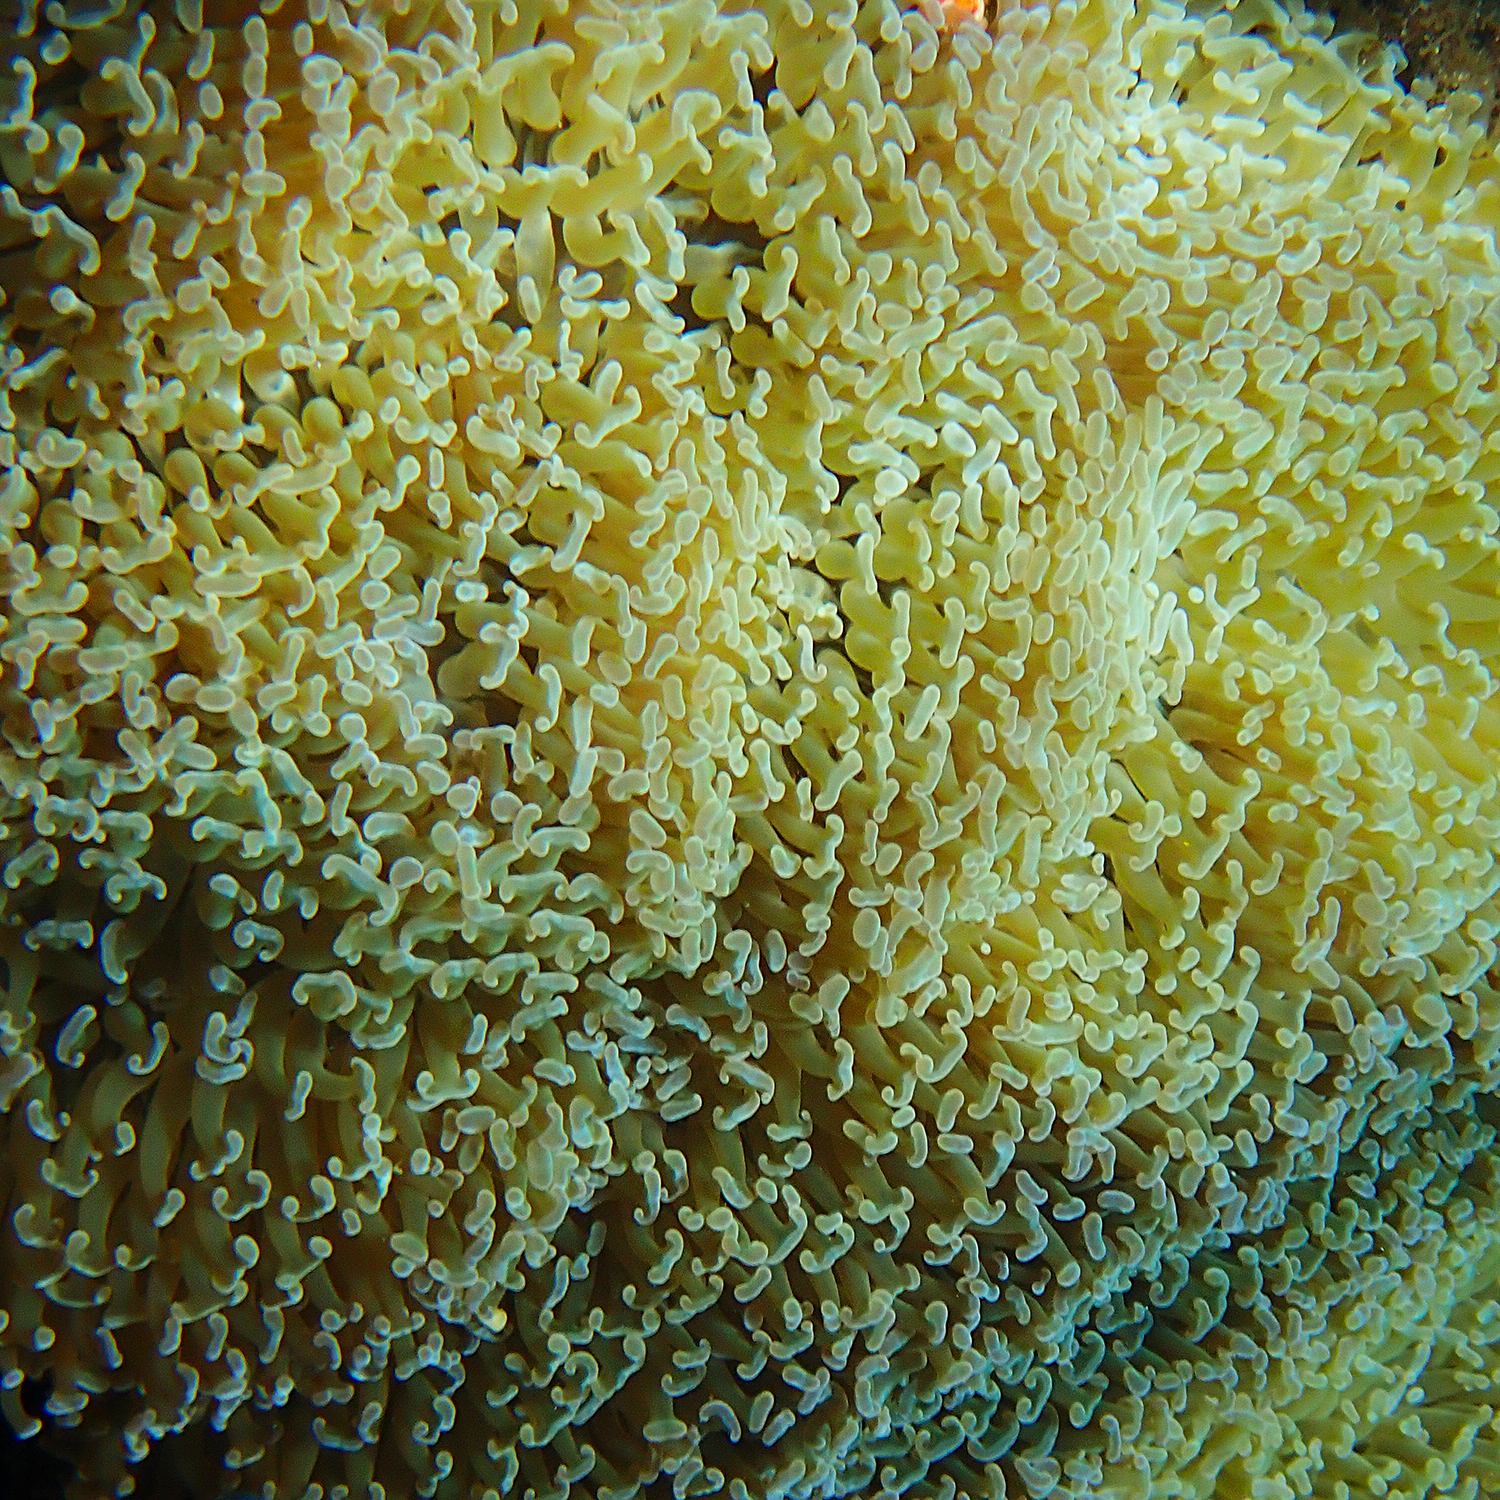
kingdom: Animalia
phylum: Cnidaria
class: Anthozoa
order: Scleractinia
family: Euphylliidae
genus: Fimbriaphyllia
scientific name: Fimbriaphyllia ancora
